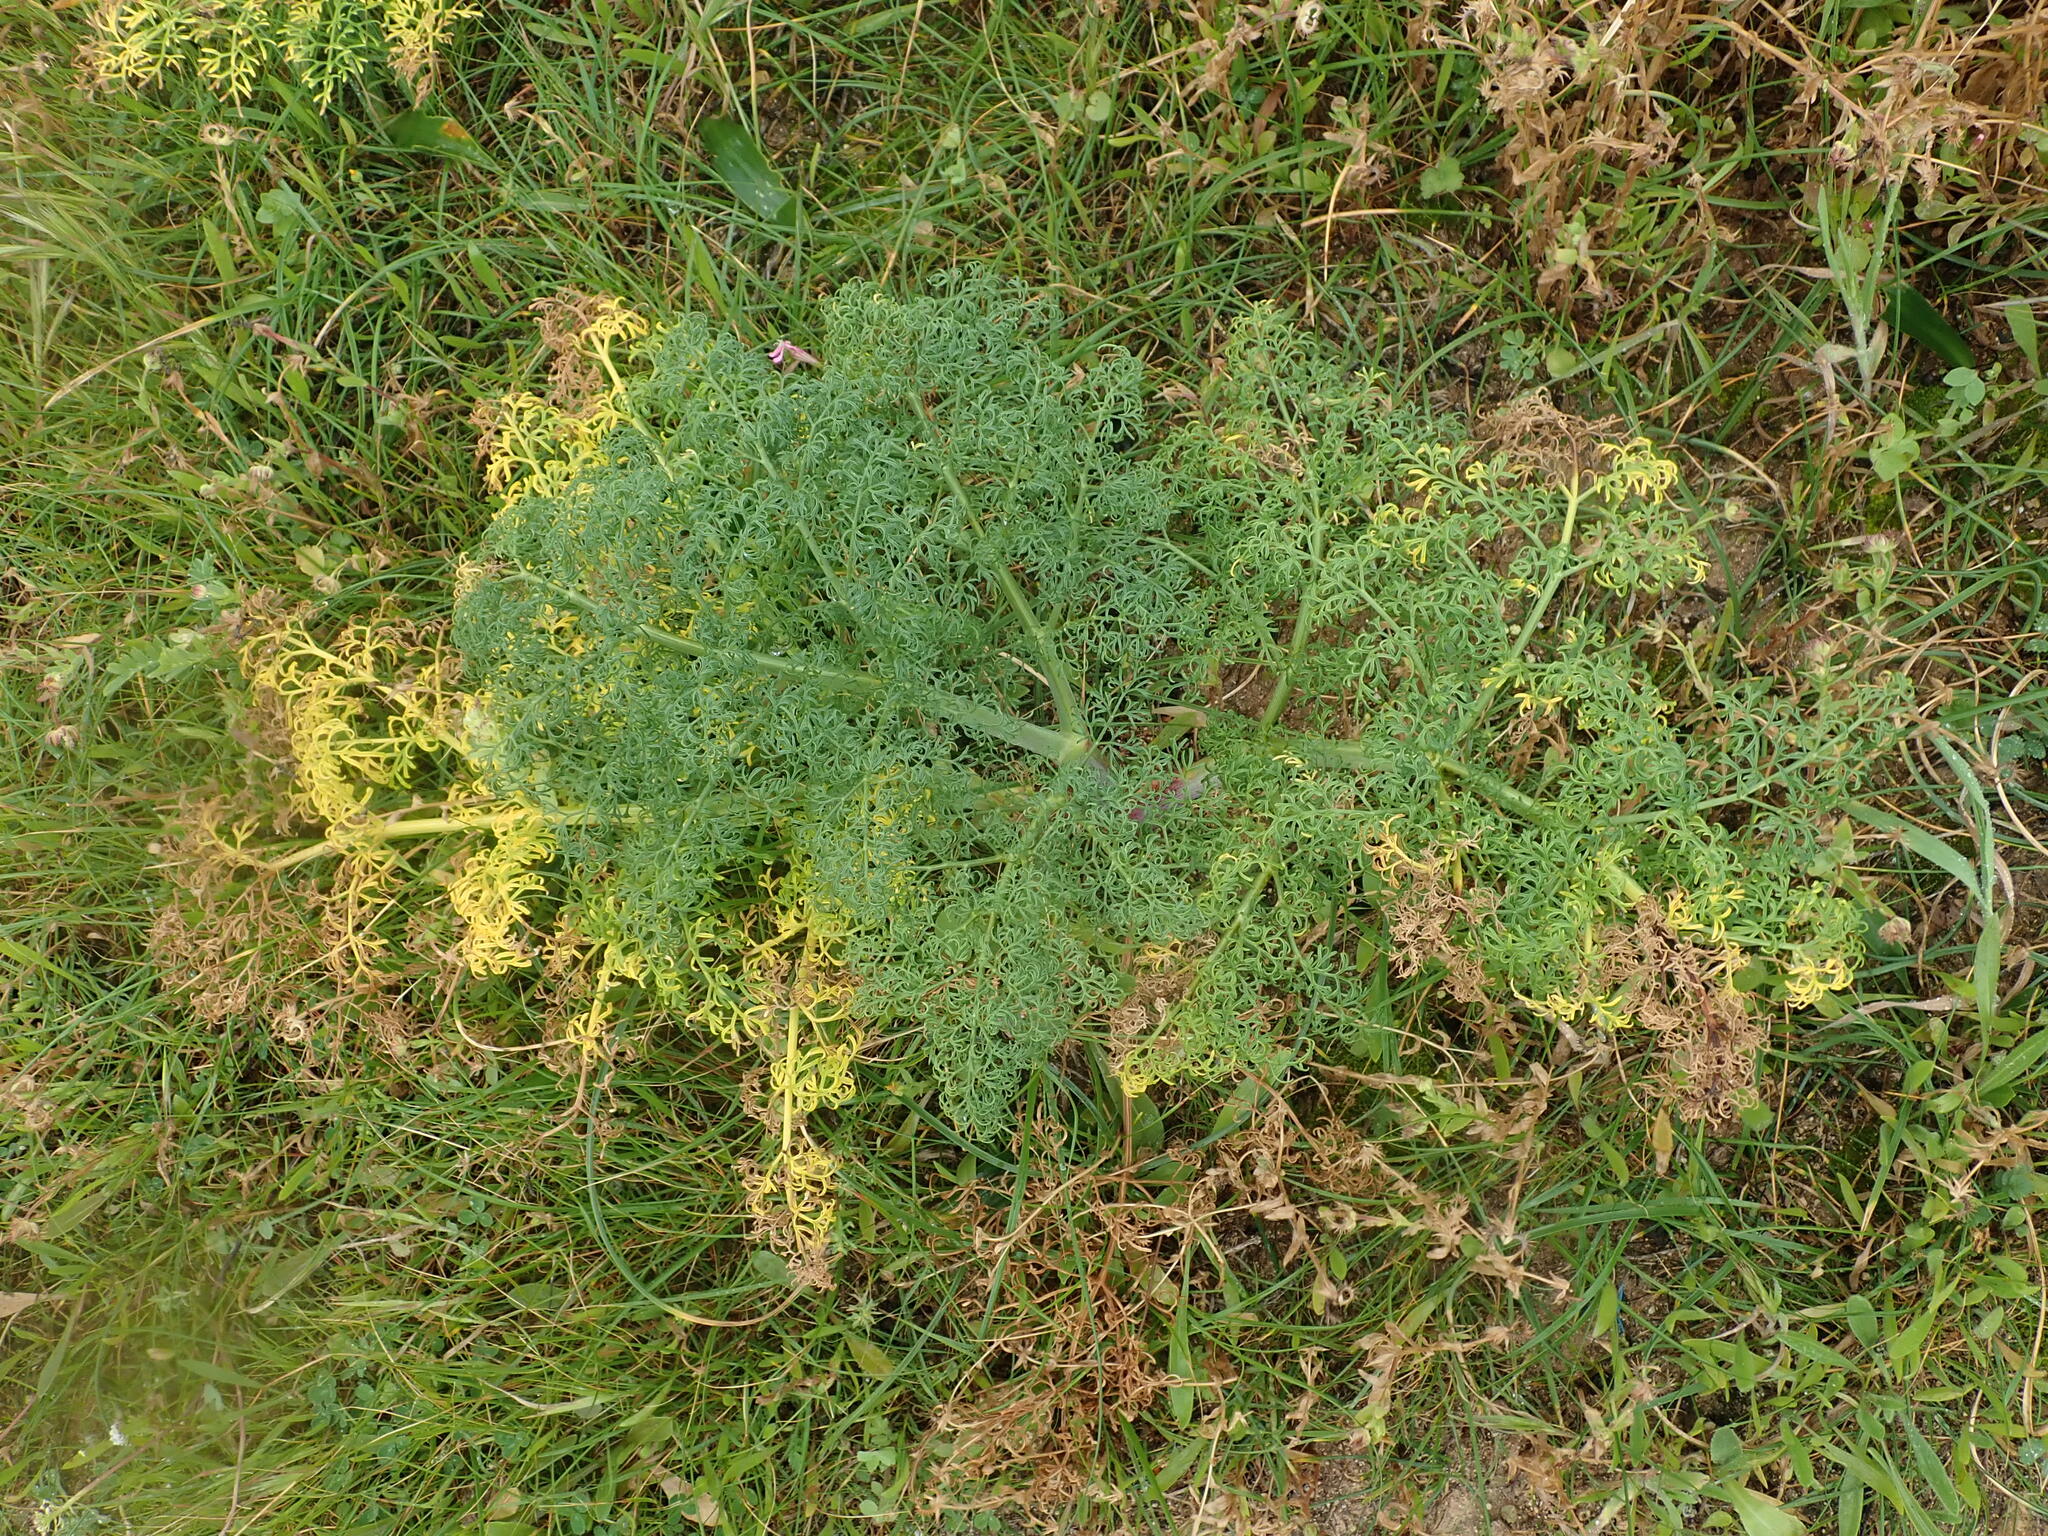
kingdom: Plantae
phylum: Tracheophyta
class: Magnoliopsida
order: Apiales
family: Apiaceae
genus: Ferula
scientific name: Ferula melitensis
